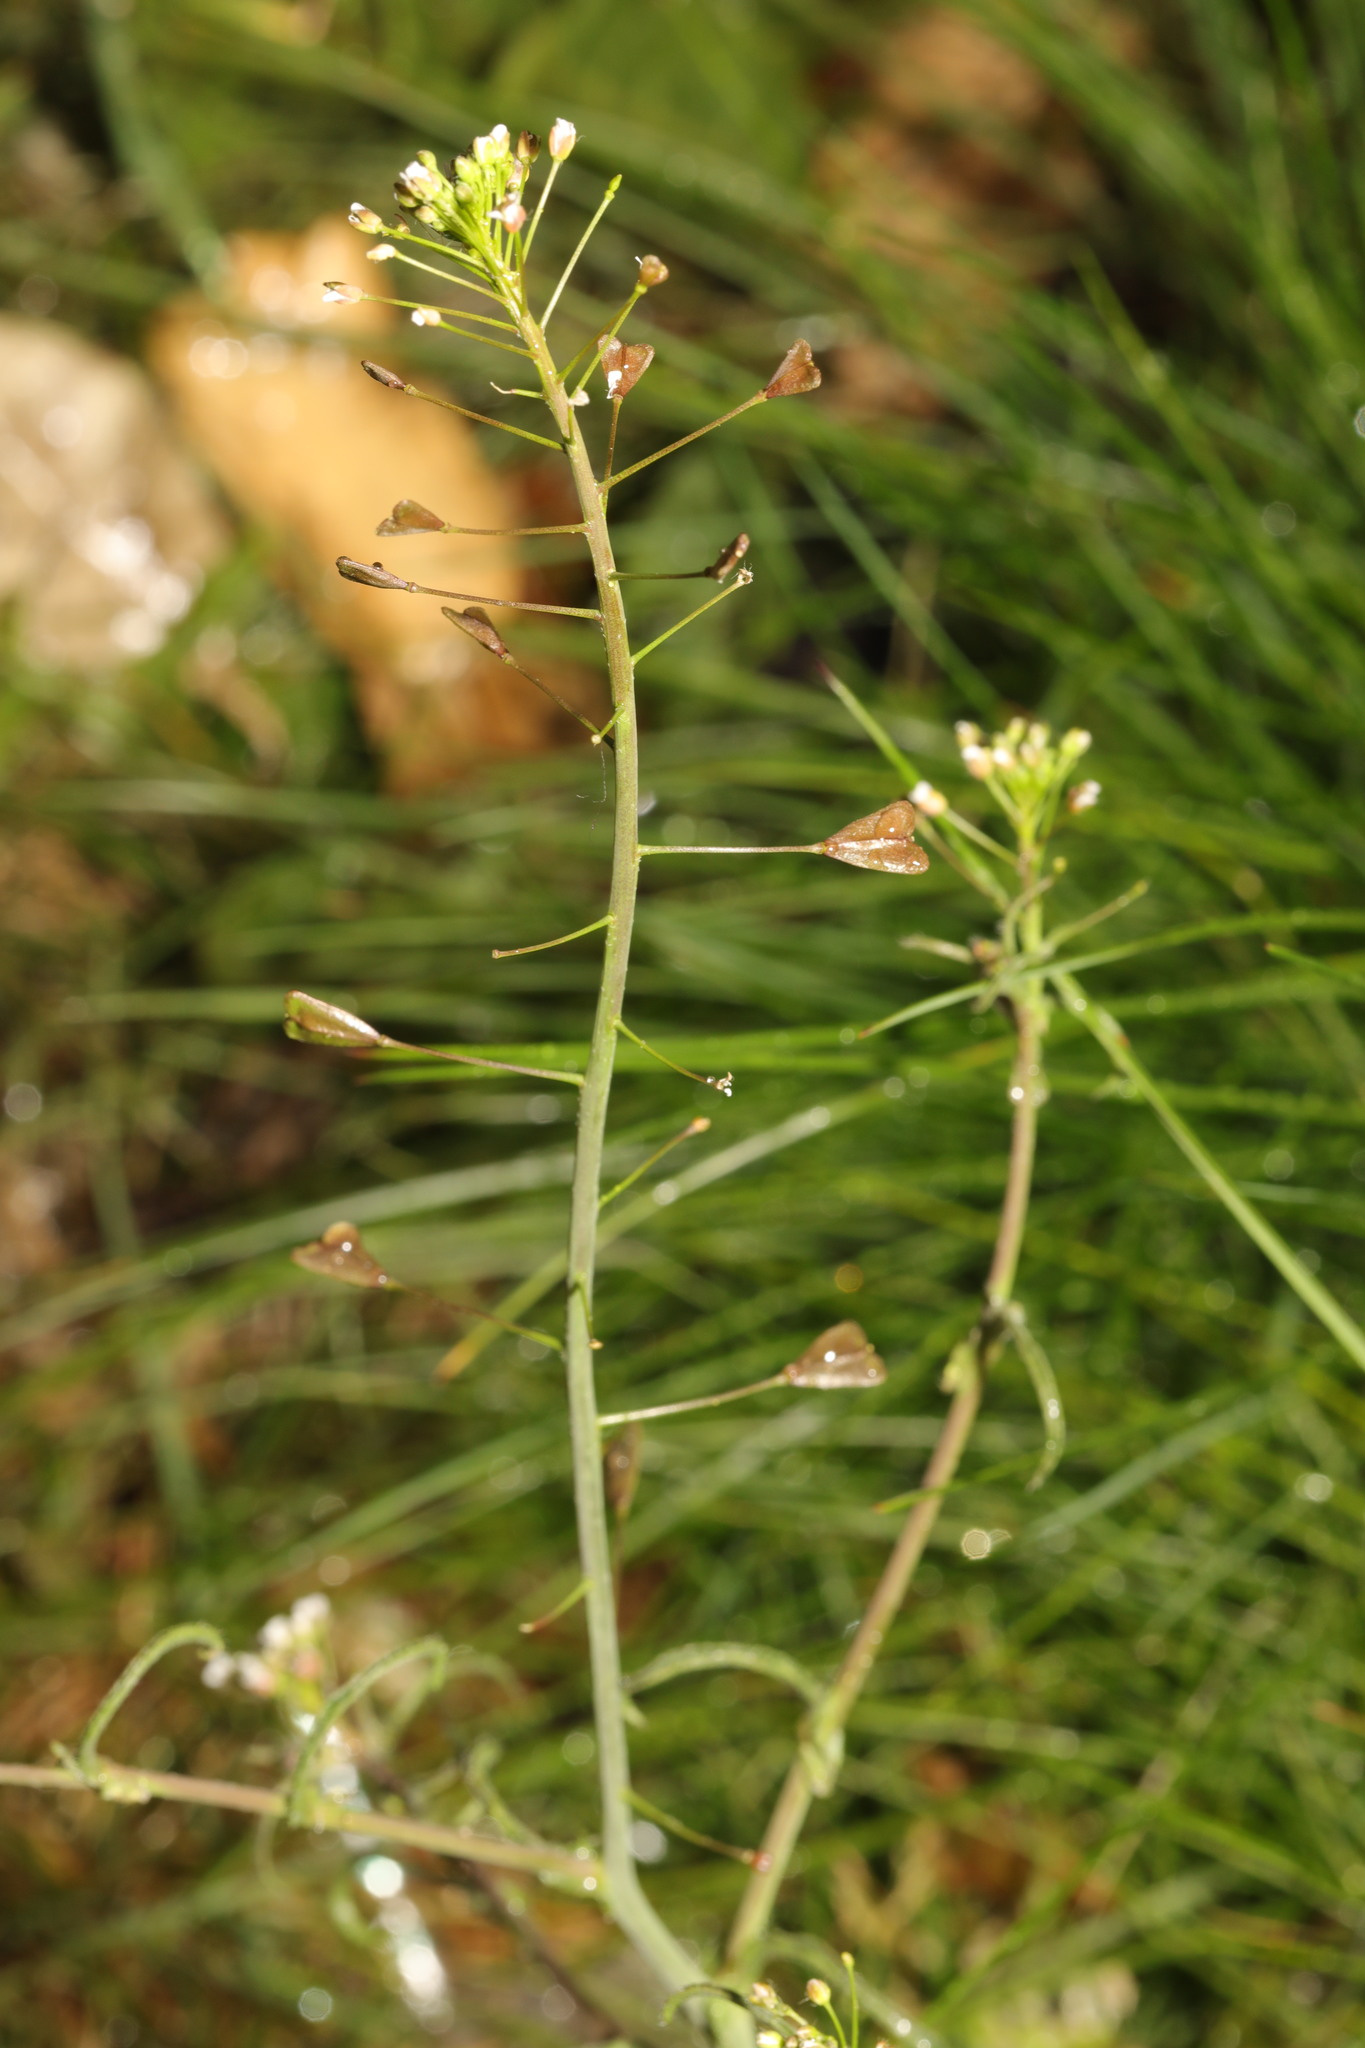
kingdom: Plantae
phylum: Tracheophyta
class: Magnoliopsida
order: Brassicales
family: Brassicaceae
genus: Capsella
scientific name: Capsella bursa-pastoris
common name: Shepherd's purse
